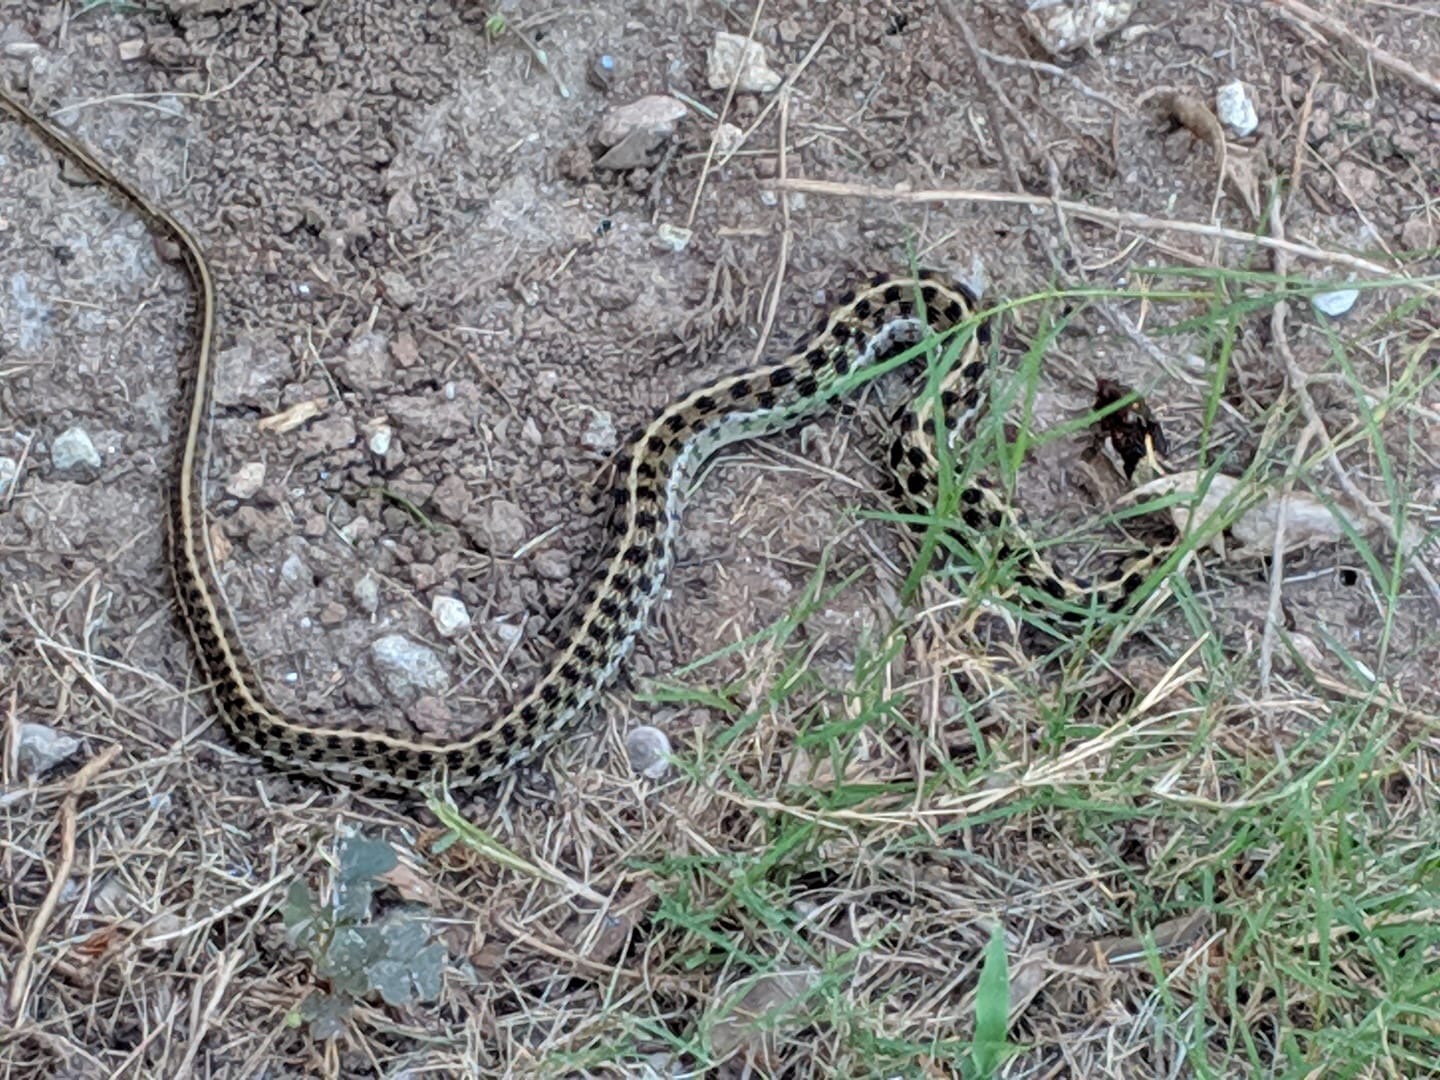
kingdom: Animalia
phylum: Chordata
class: Squamata
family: Colubridae
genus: Thamnophis
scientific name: Thamnophis marcianus
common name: Checkered garter snake
